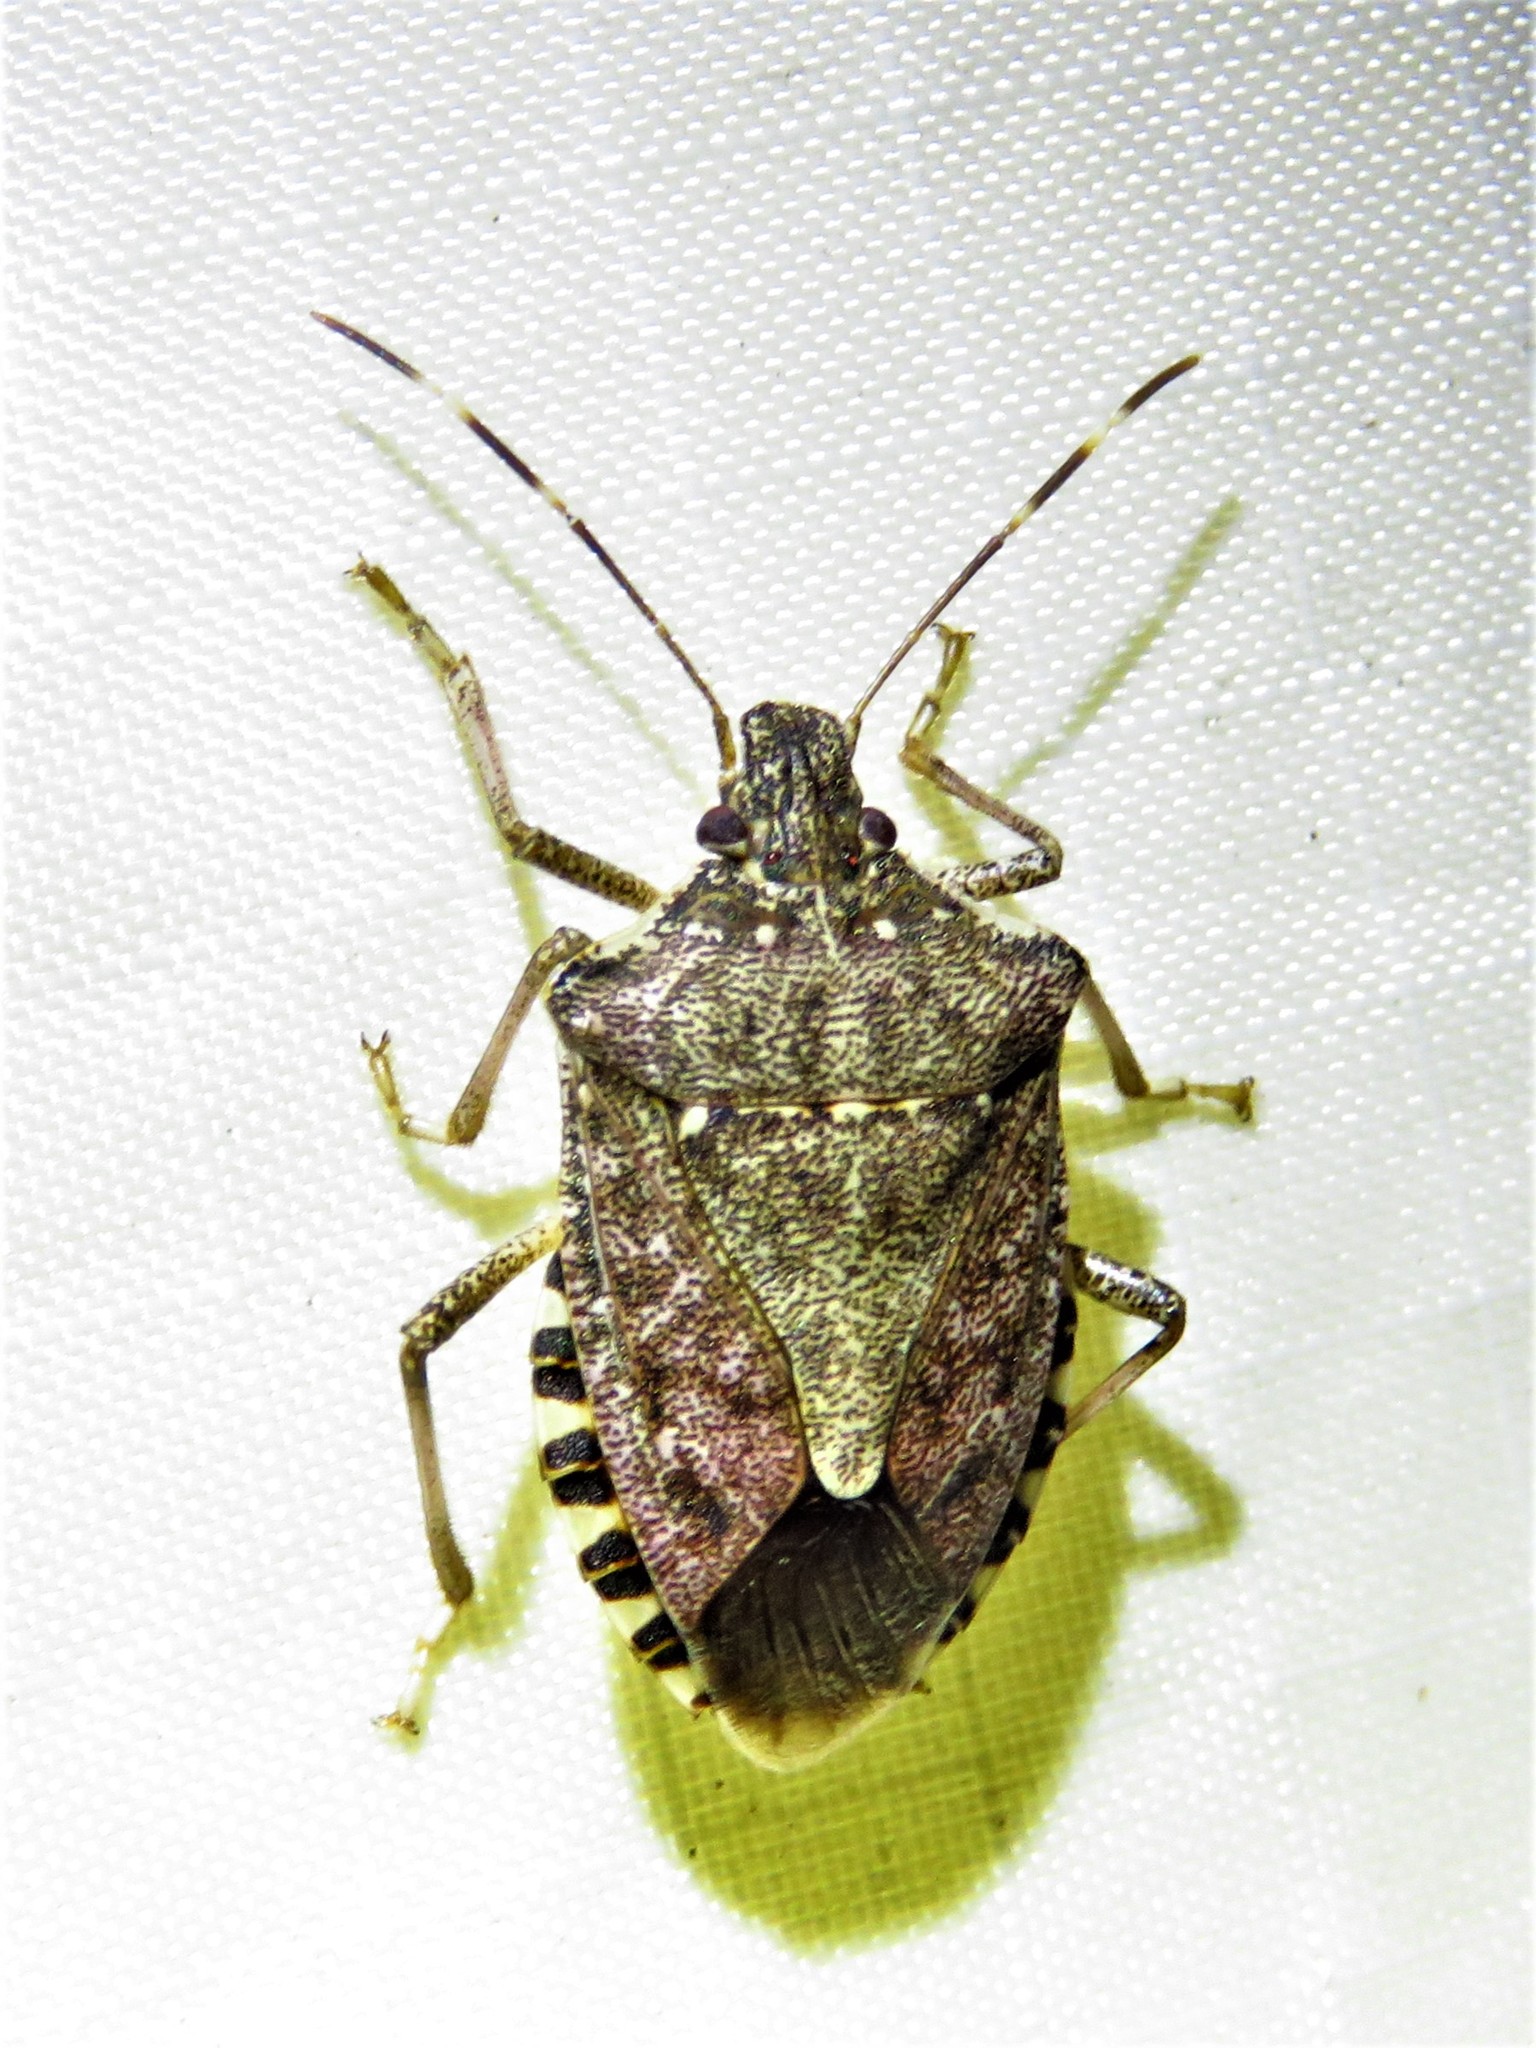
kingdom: Animalia
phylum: Arthropoda
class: Insecta
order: Hemiptera
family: Pentatomidae
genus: Halyomorpha
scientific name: Halyomorpha halys
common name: Brown marmorated stink bug
